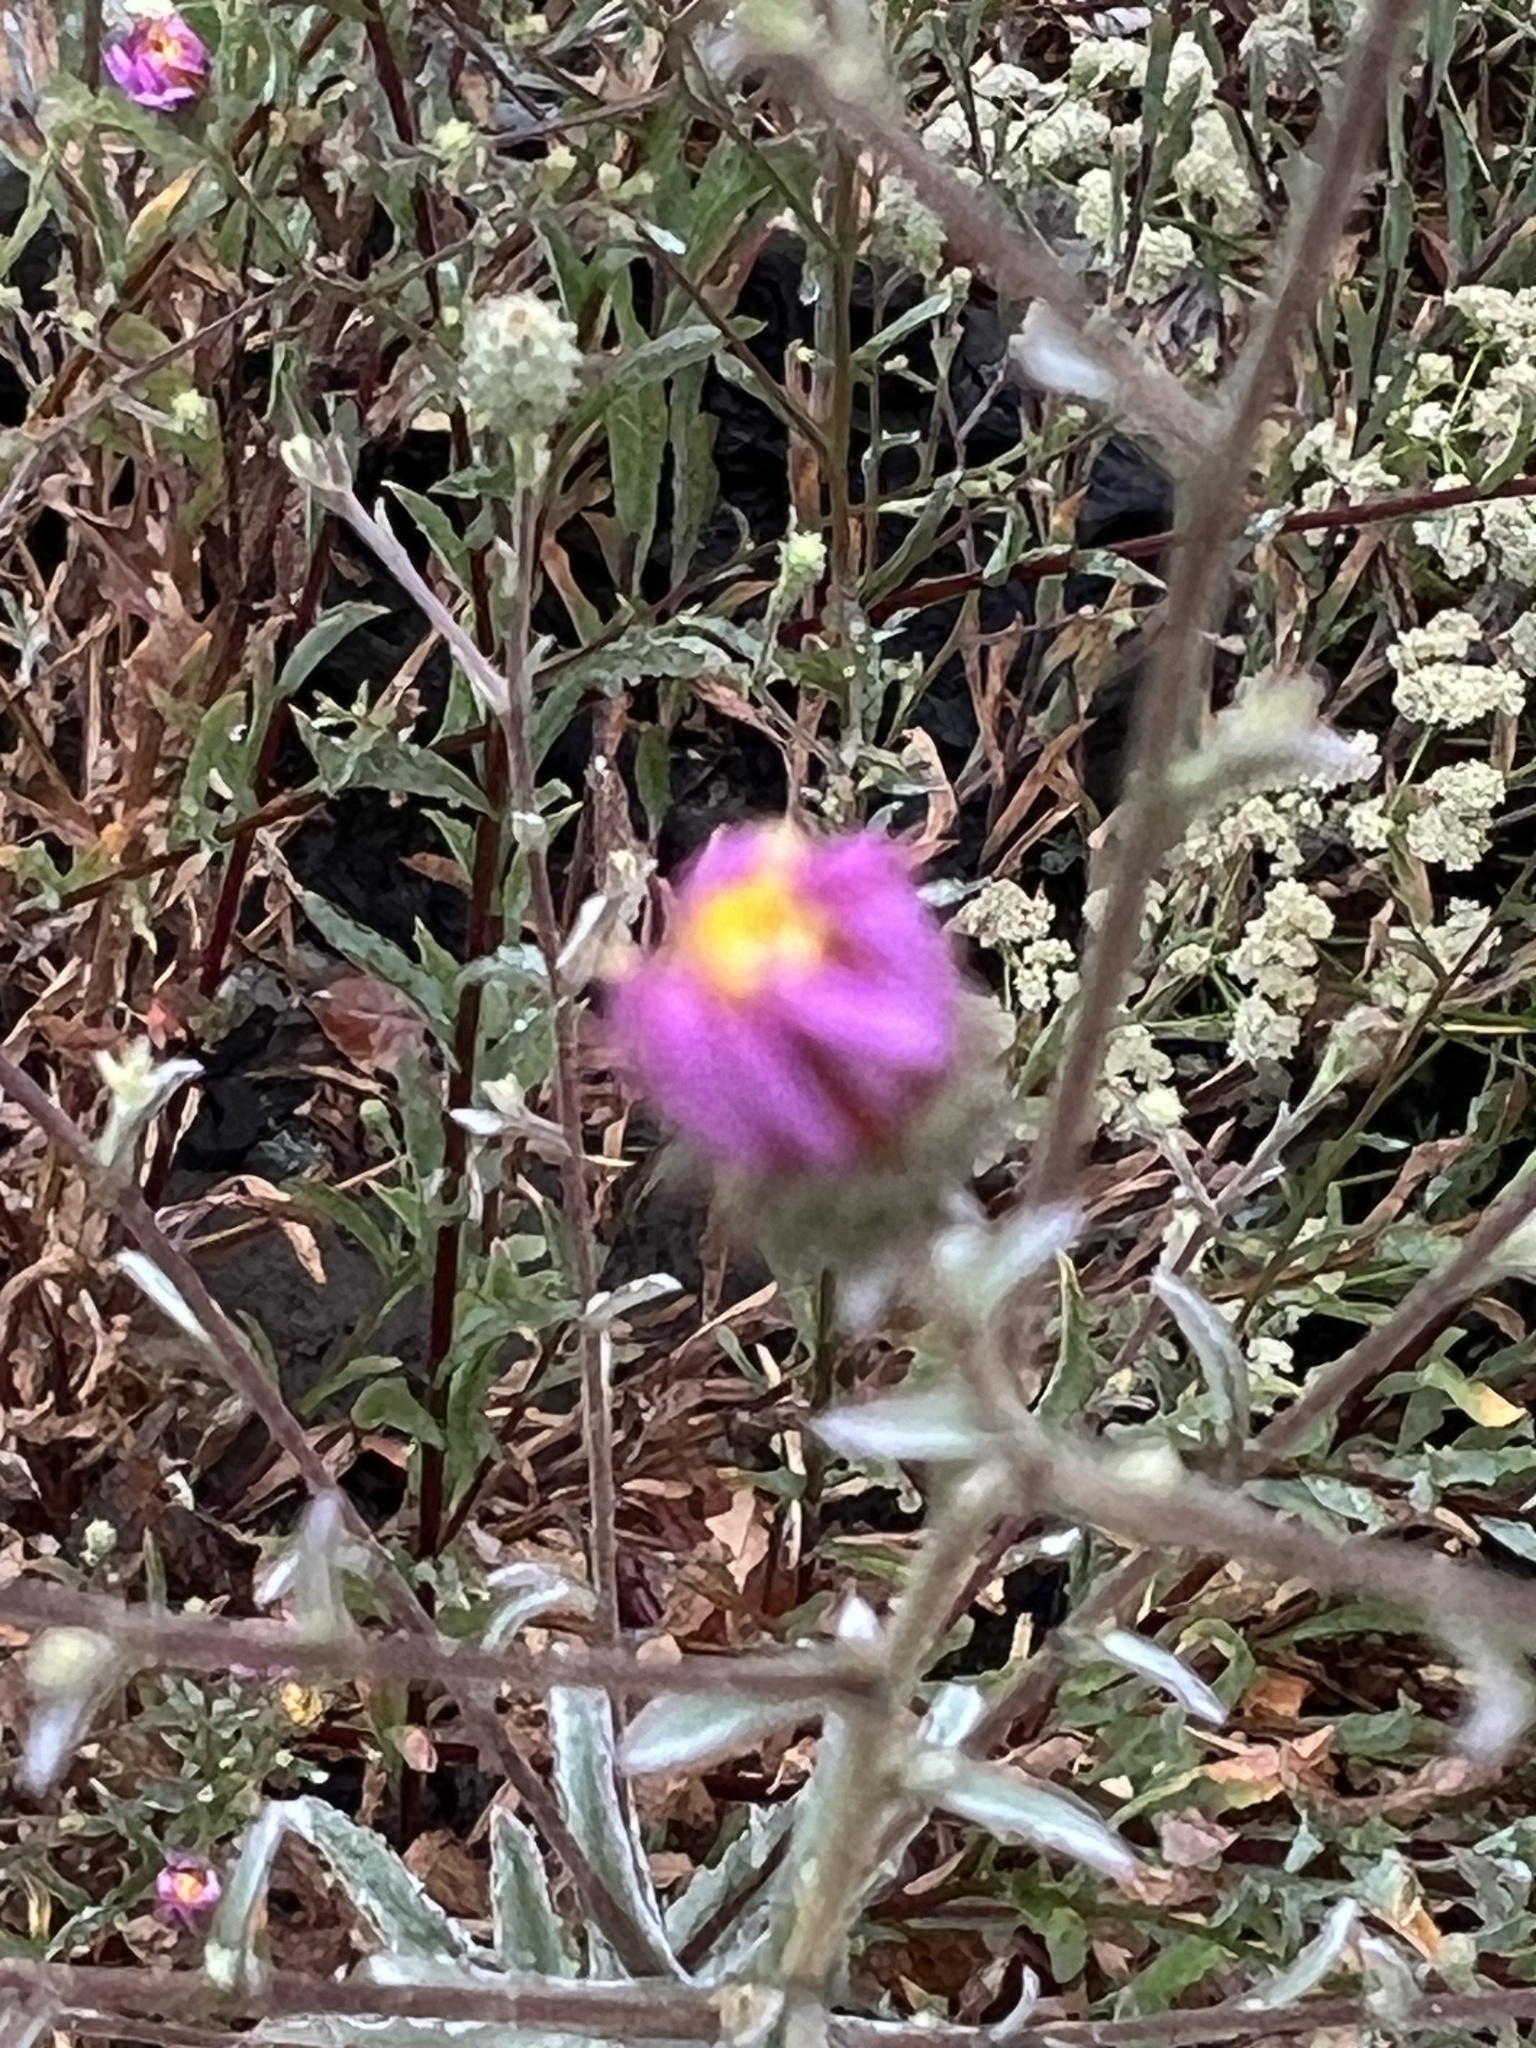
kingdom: Plantae
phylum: Tracheophyta
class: Magnoliopsida
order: Asterales
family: Asteraceae
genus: Corethrogyne
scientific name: Corethrogyne filaginifolia
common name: Sand-aster
